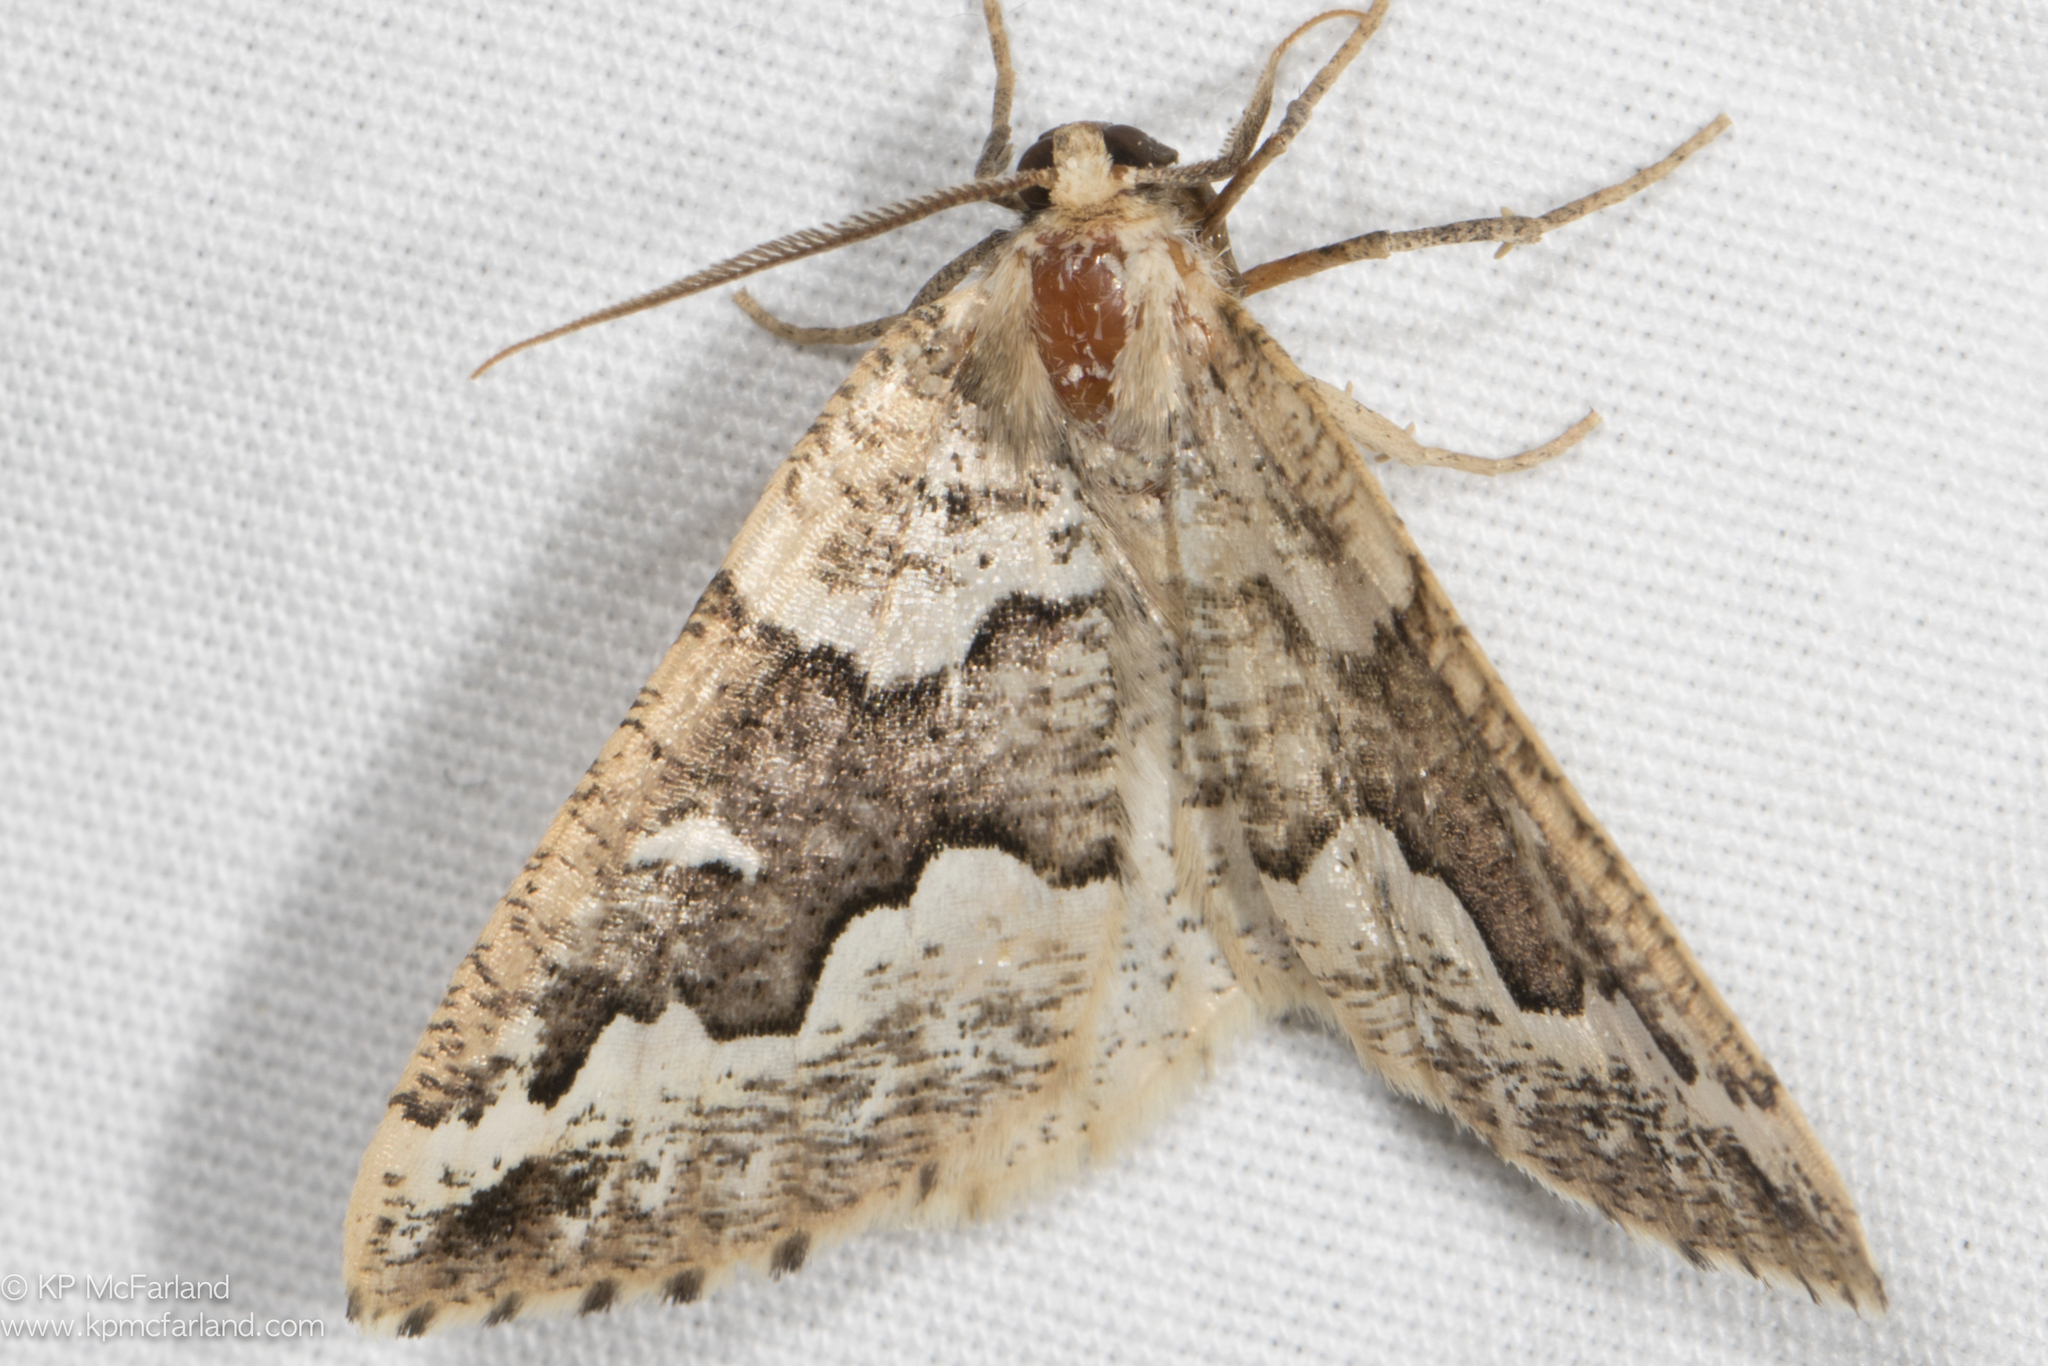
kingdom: Animalia
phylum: Arthropoda
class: Insecta
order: Lepidoptera
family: Geometridae
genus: Caripeta
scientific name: Caripeta divisata
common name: Gray spruce looper
